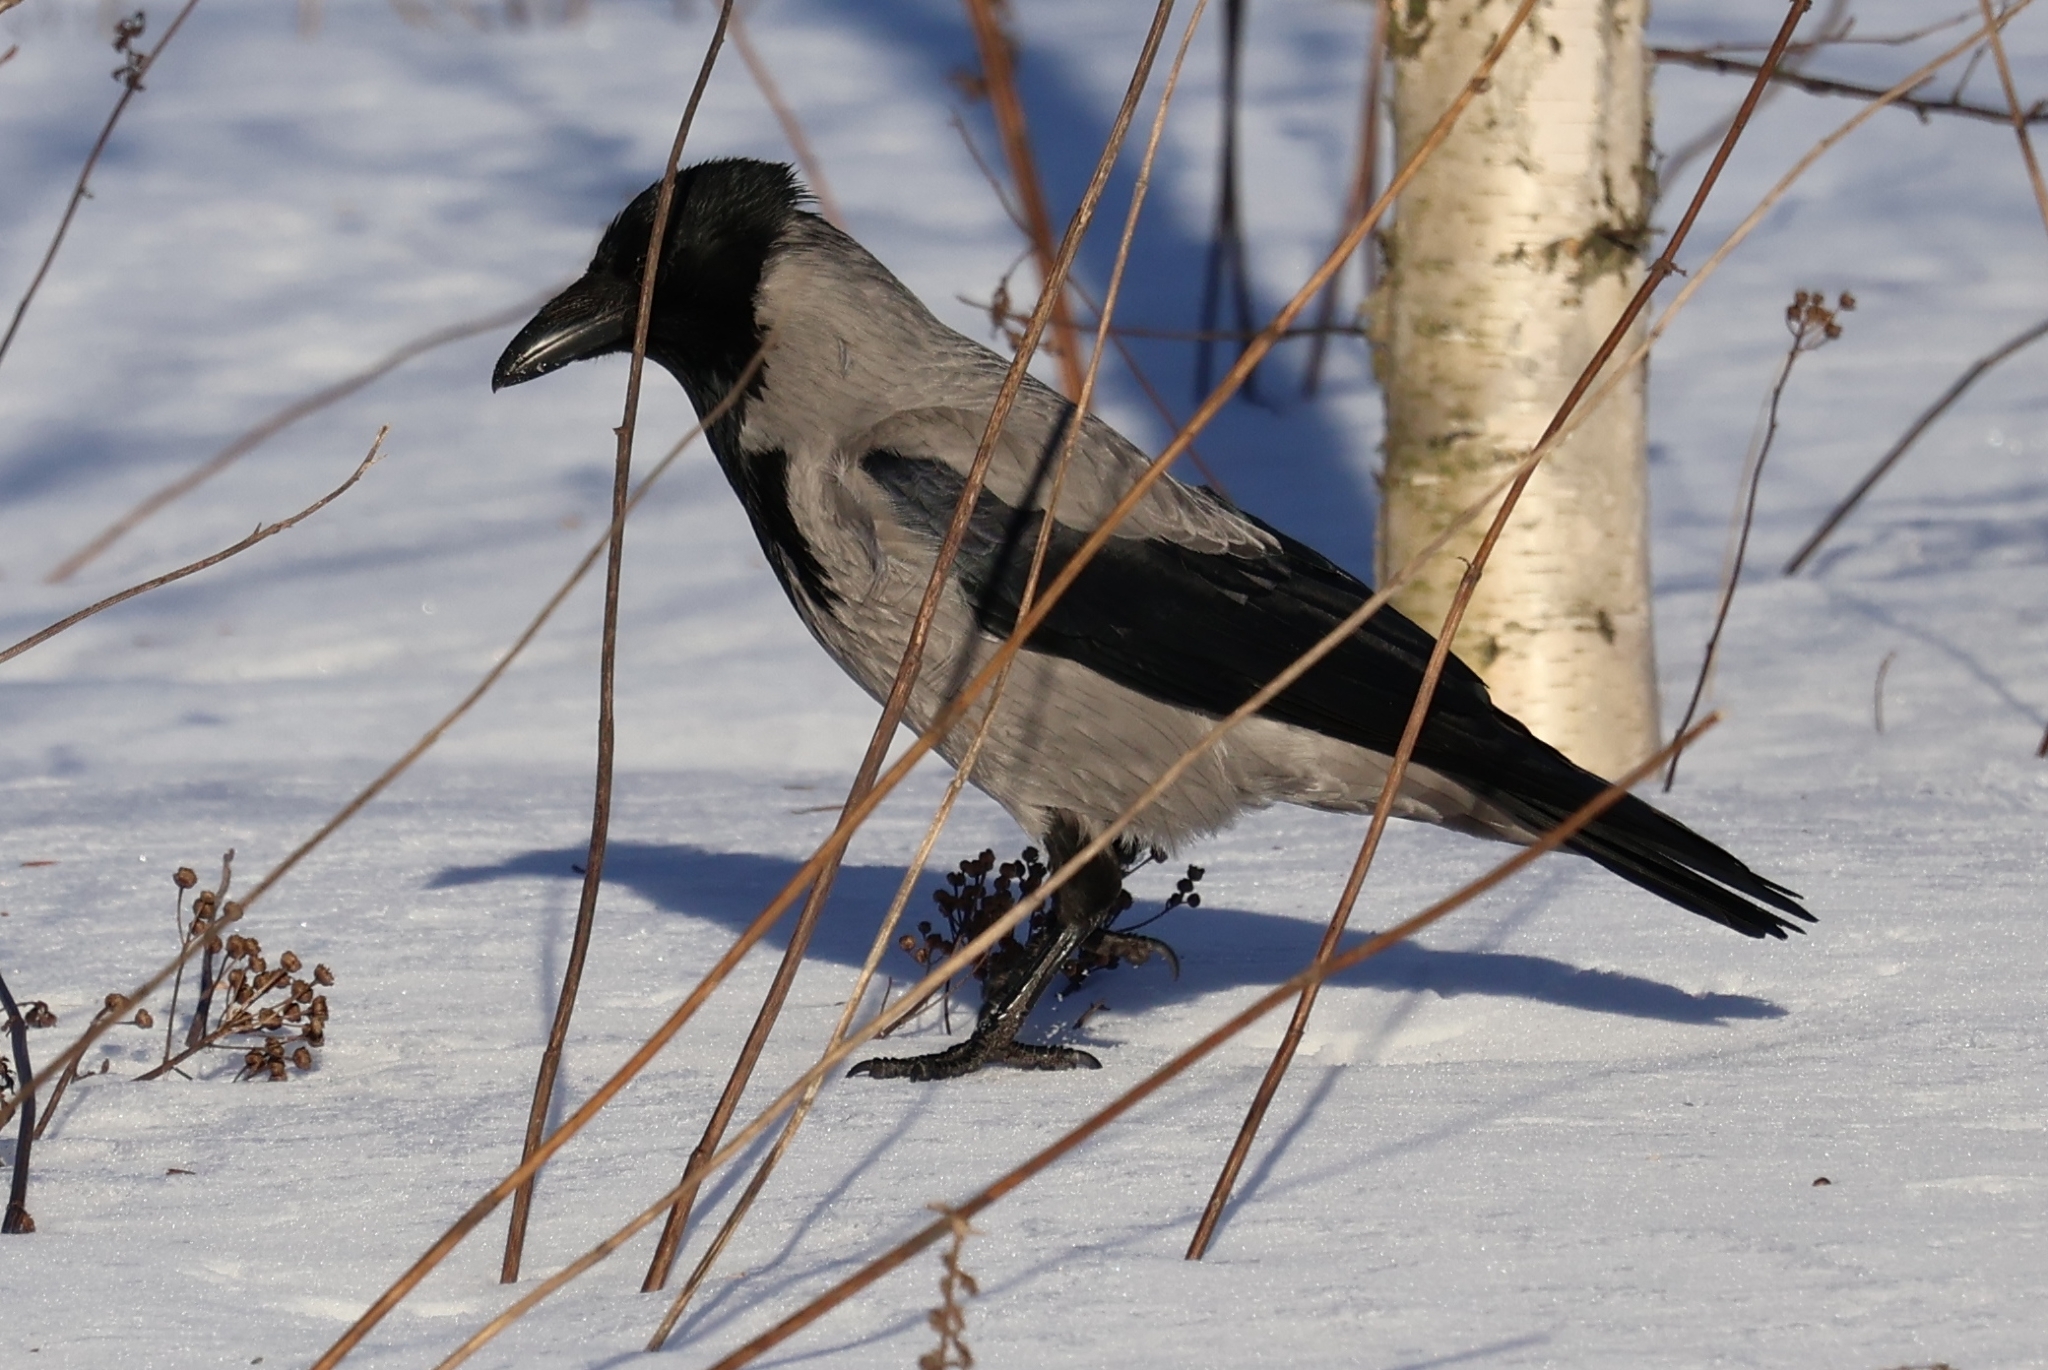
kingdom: Animalia
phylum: Chordata
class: Aves
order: Passeriformes
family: Corvidae
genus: Corvus
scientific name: Corvus cornix
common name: Hooded crow
